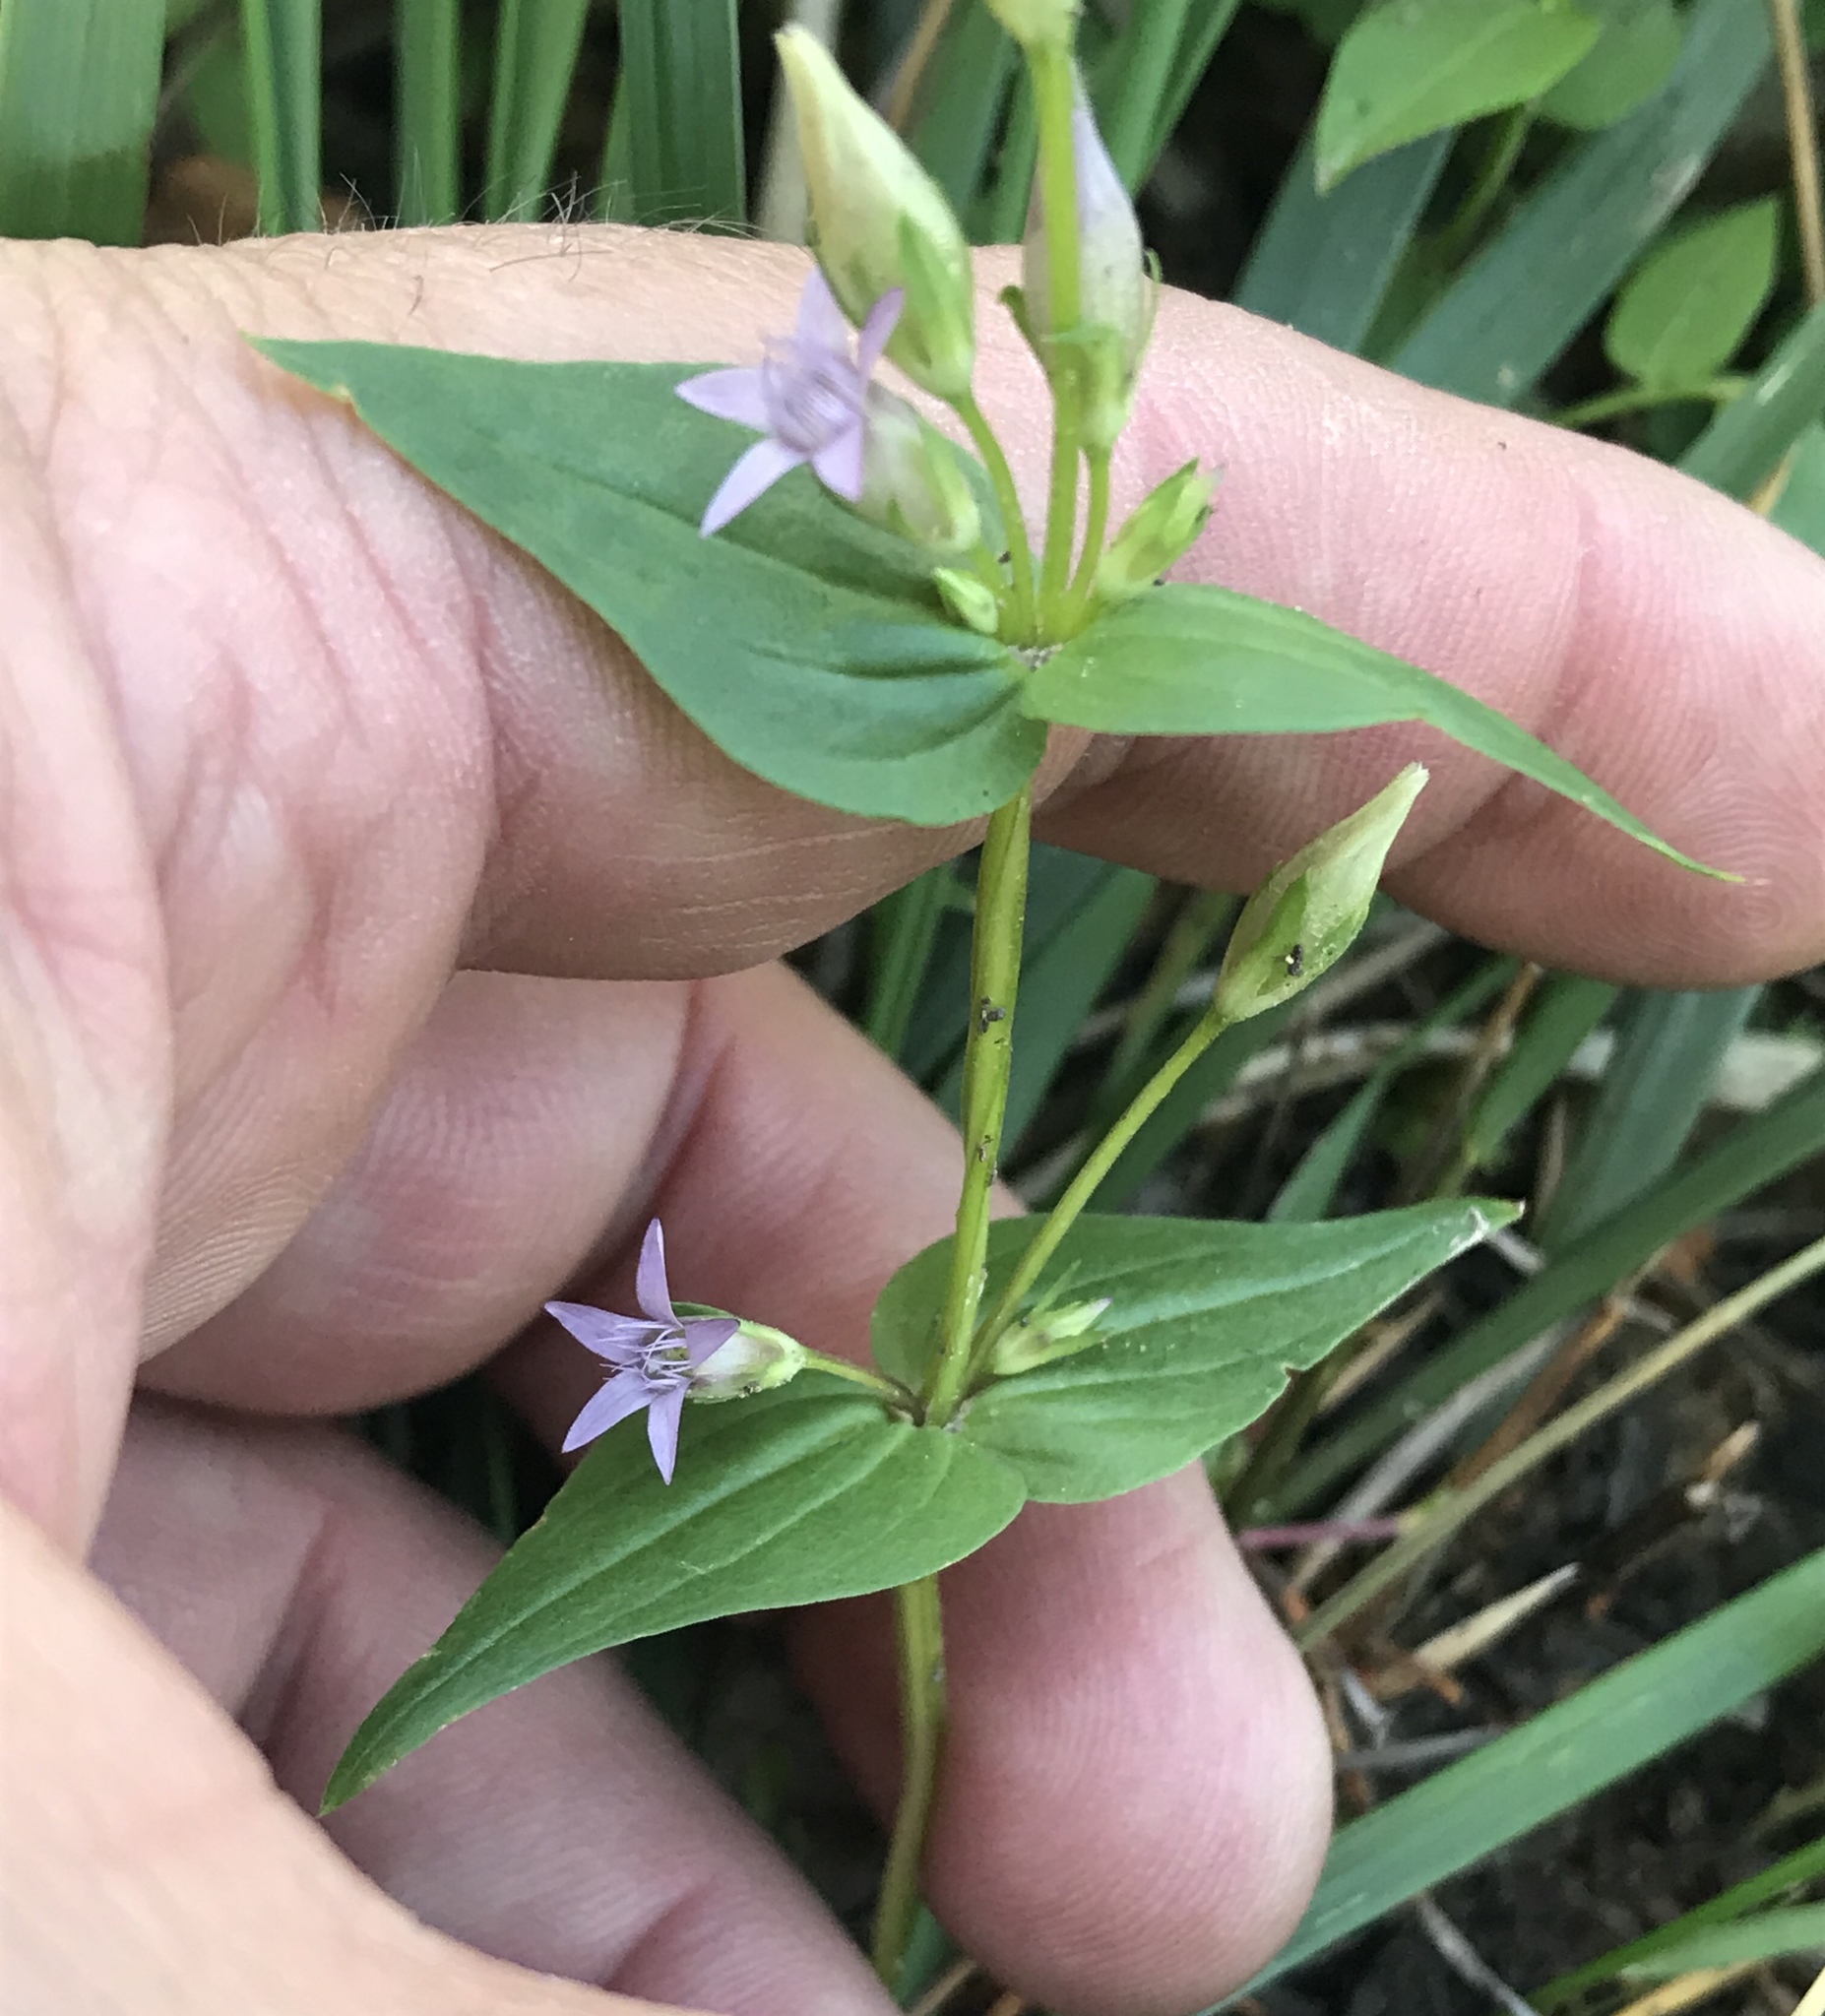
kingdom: Plantae
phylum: Tracheophyta
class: Magnoliopsida
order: Gentianales
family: Gentianaceae
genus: Gentianella
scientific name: Gentianella amarella
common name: Autumn gentian
